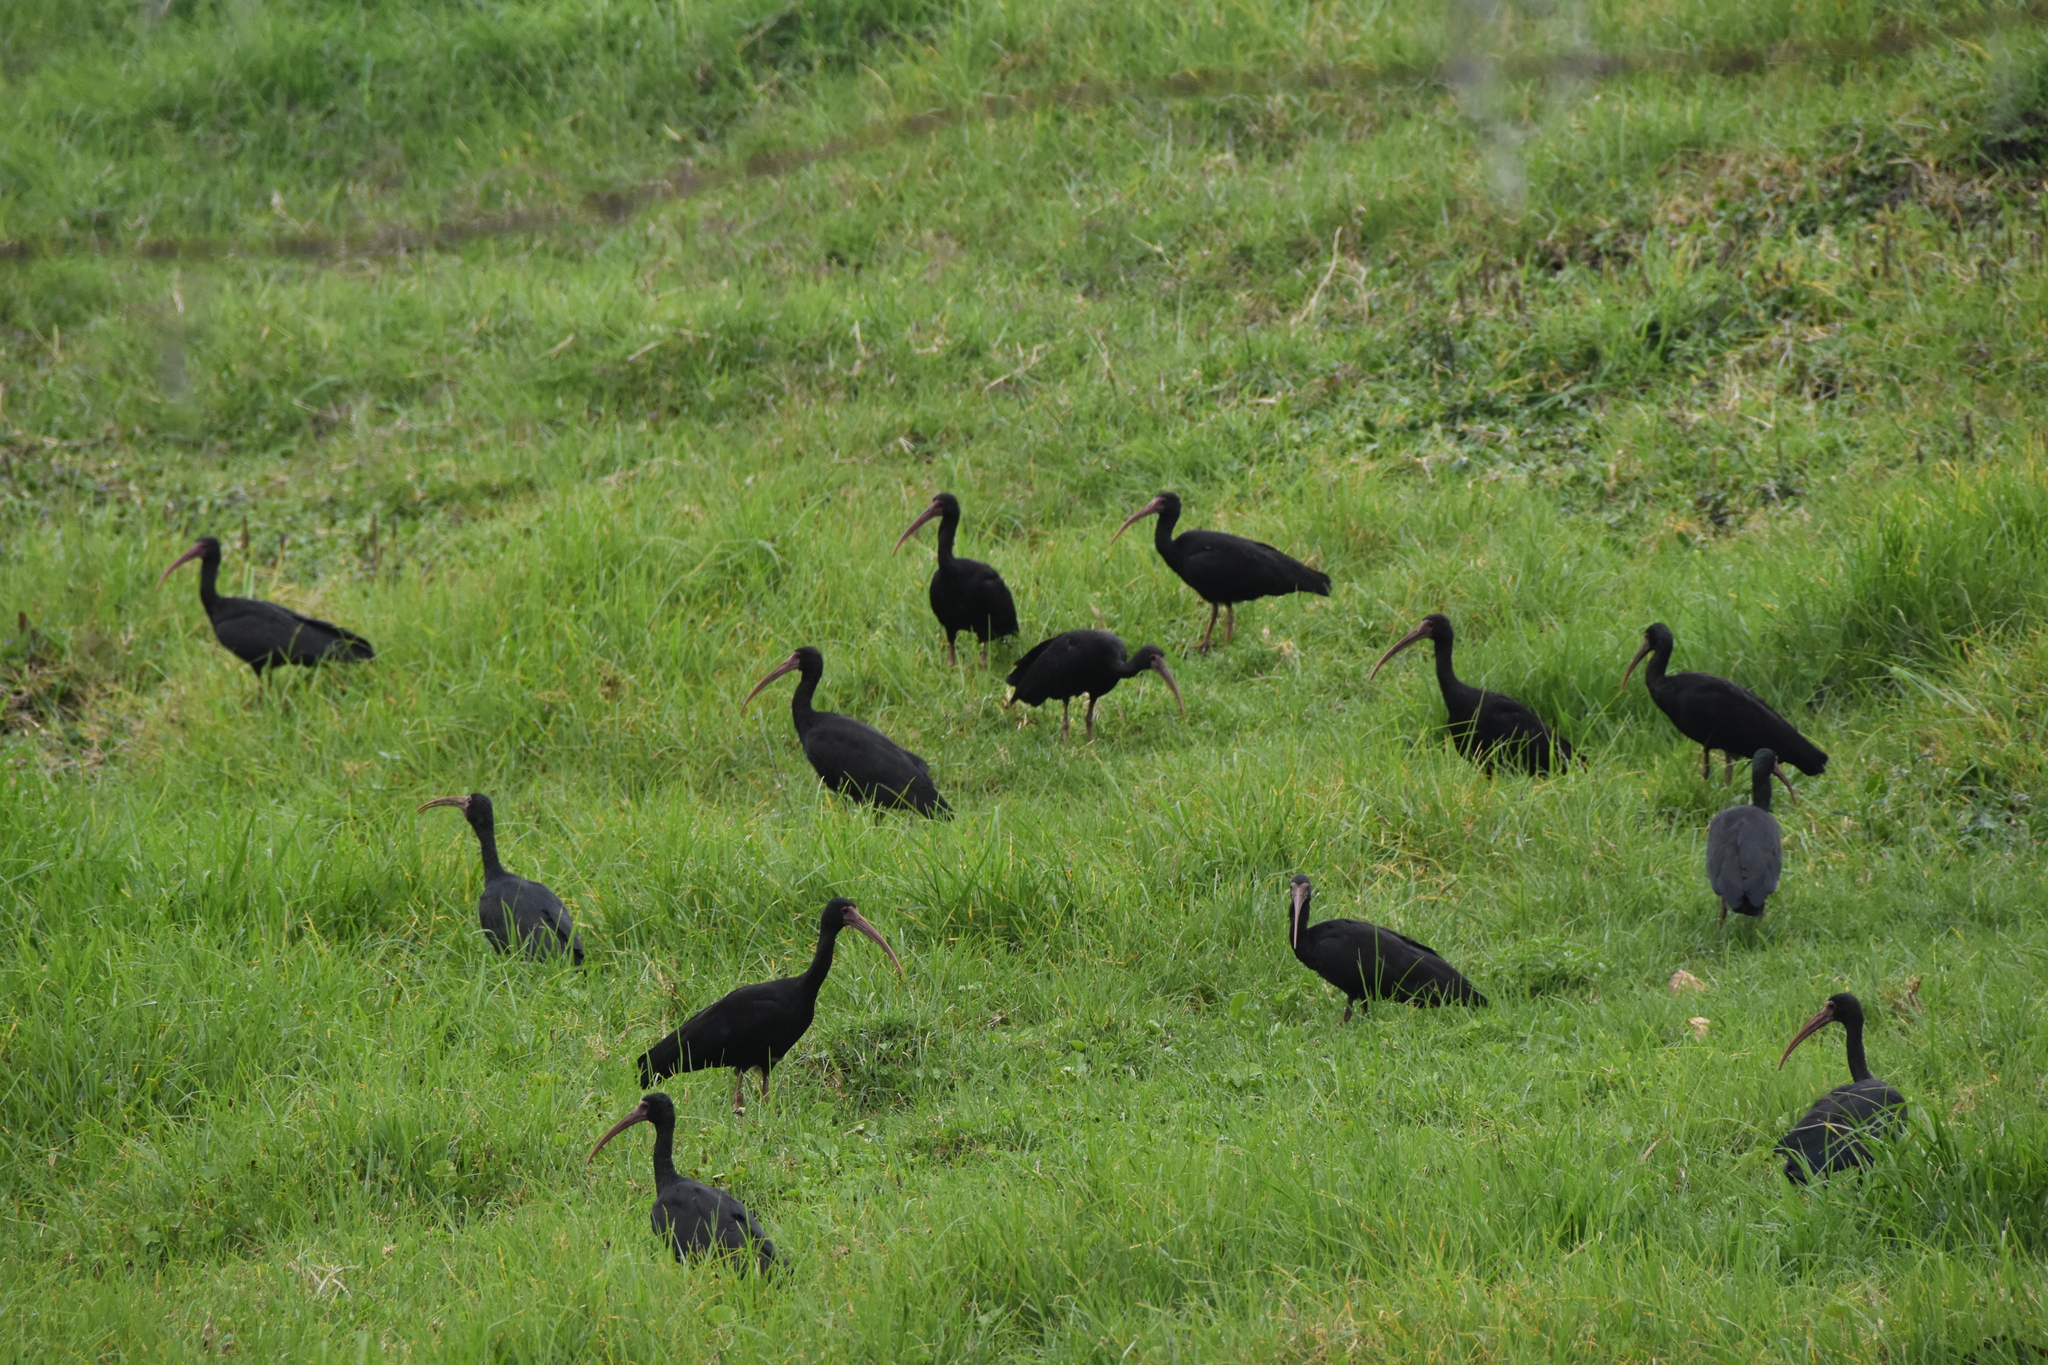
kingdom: Animalia
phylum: Chordata
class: Aves
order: Pelecaniformes
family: Threskiornithidae
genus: Phimosus
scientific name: Phimosus infuscatus
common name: Bare-faced ibis
